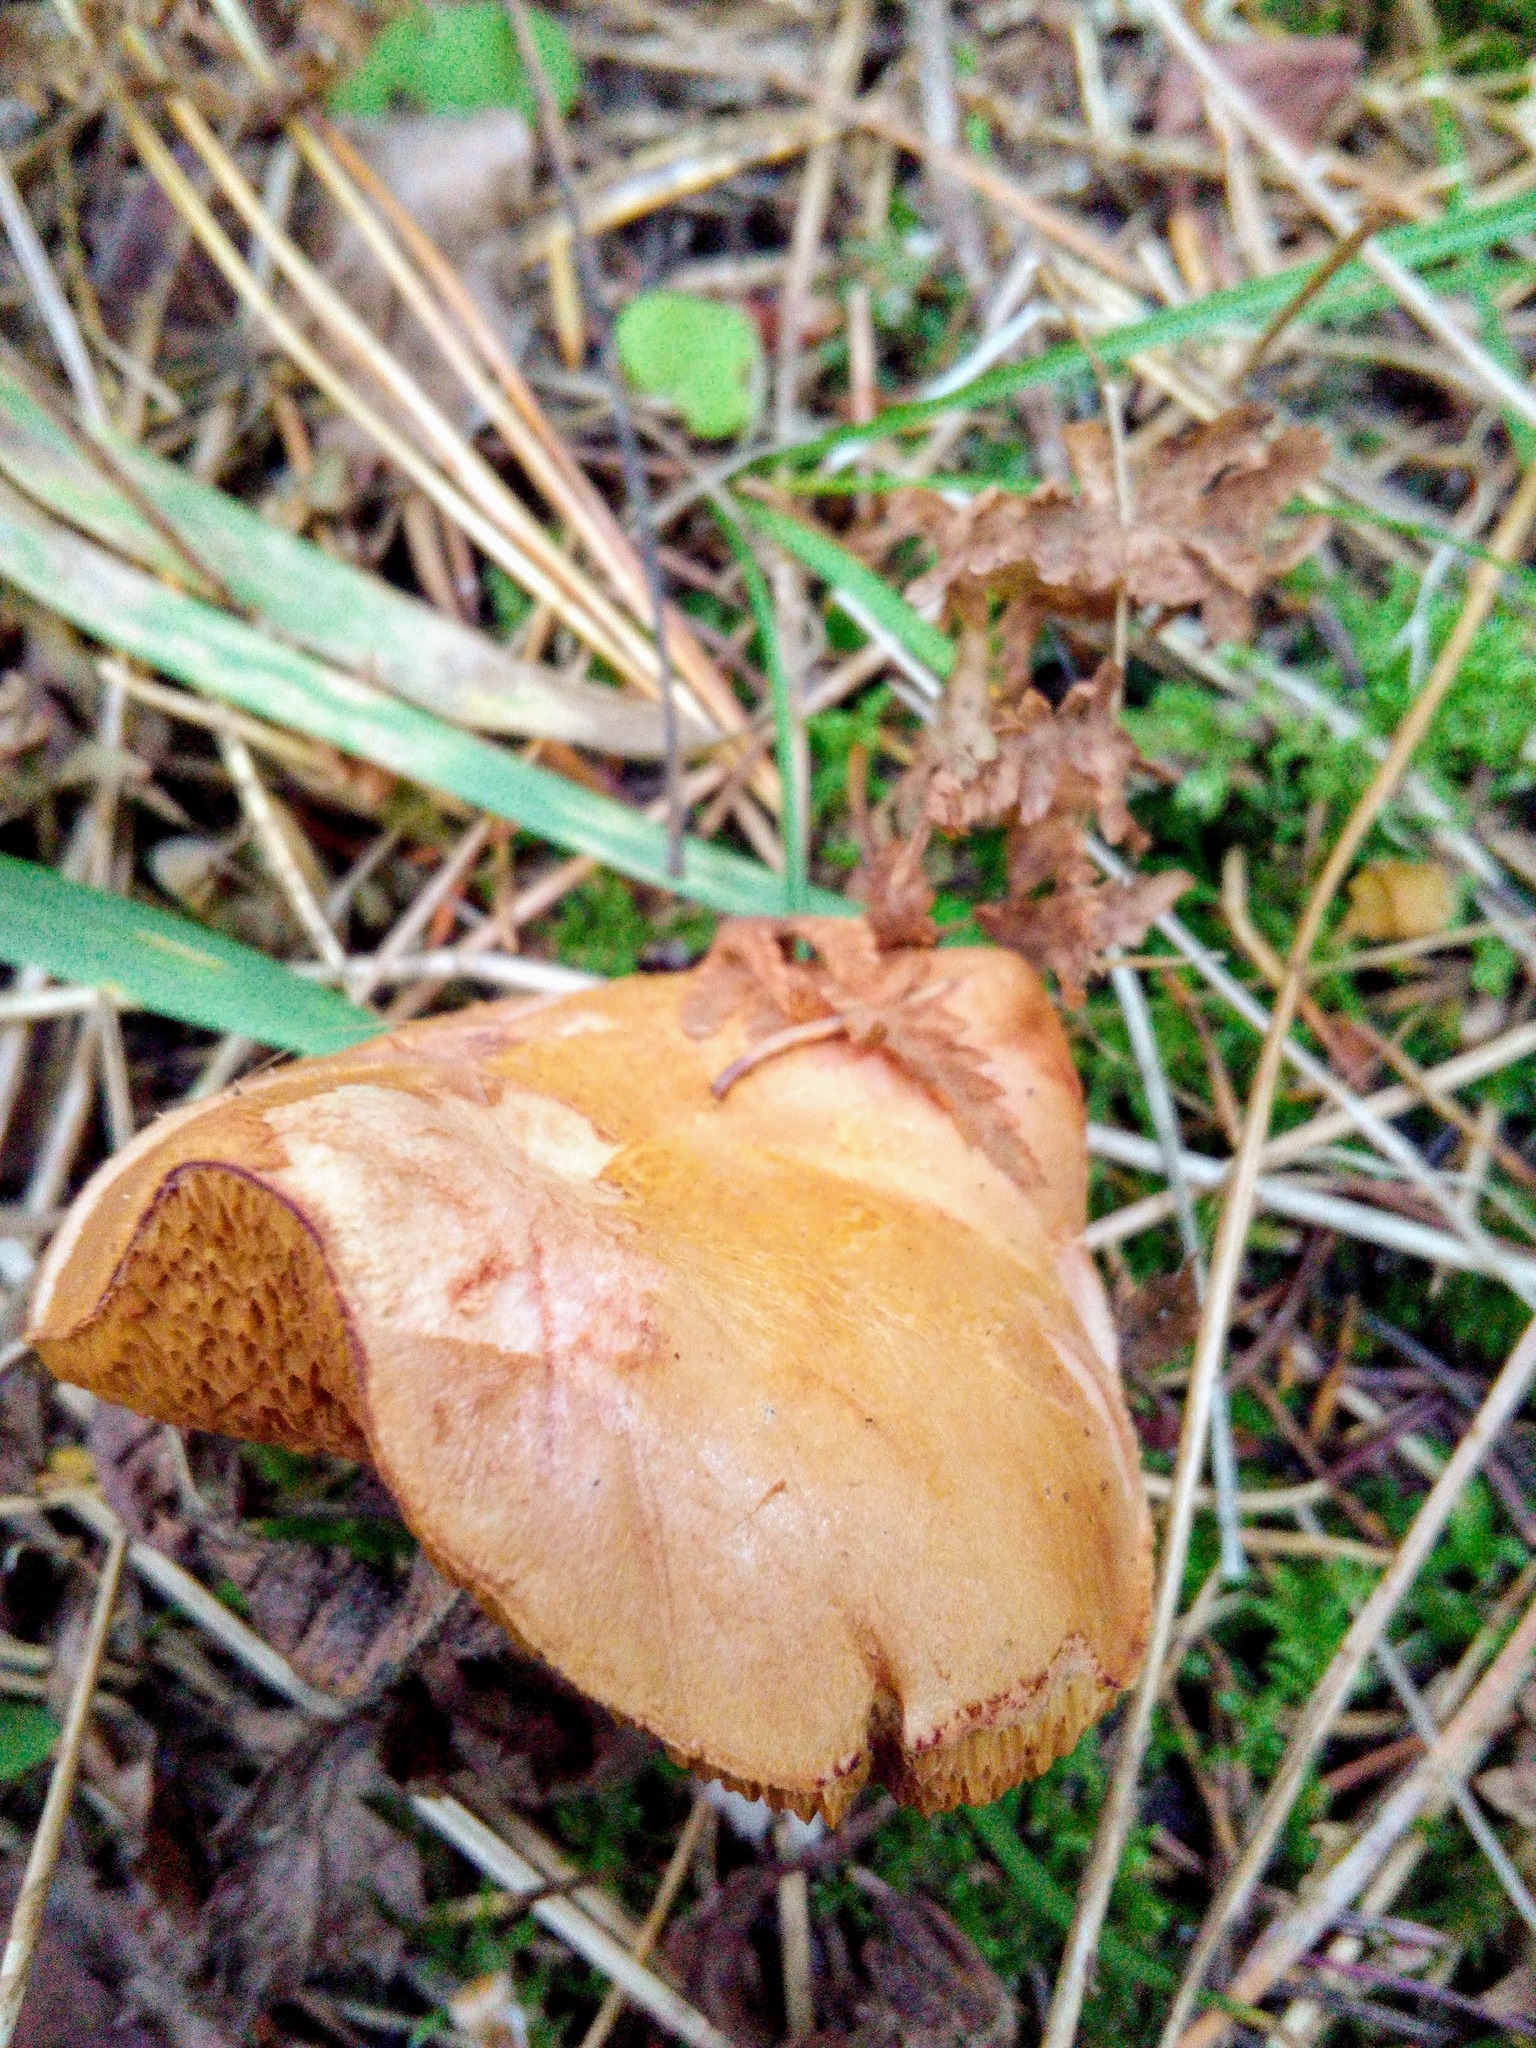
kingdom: Fungi
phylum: Basidiomycota
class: Agaricomycetes
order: Boletales
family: Boletaceae
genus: Chalciporus
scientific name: Chalciporus piperatus
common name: Peppery bolete
